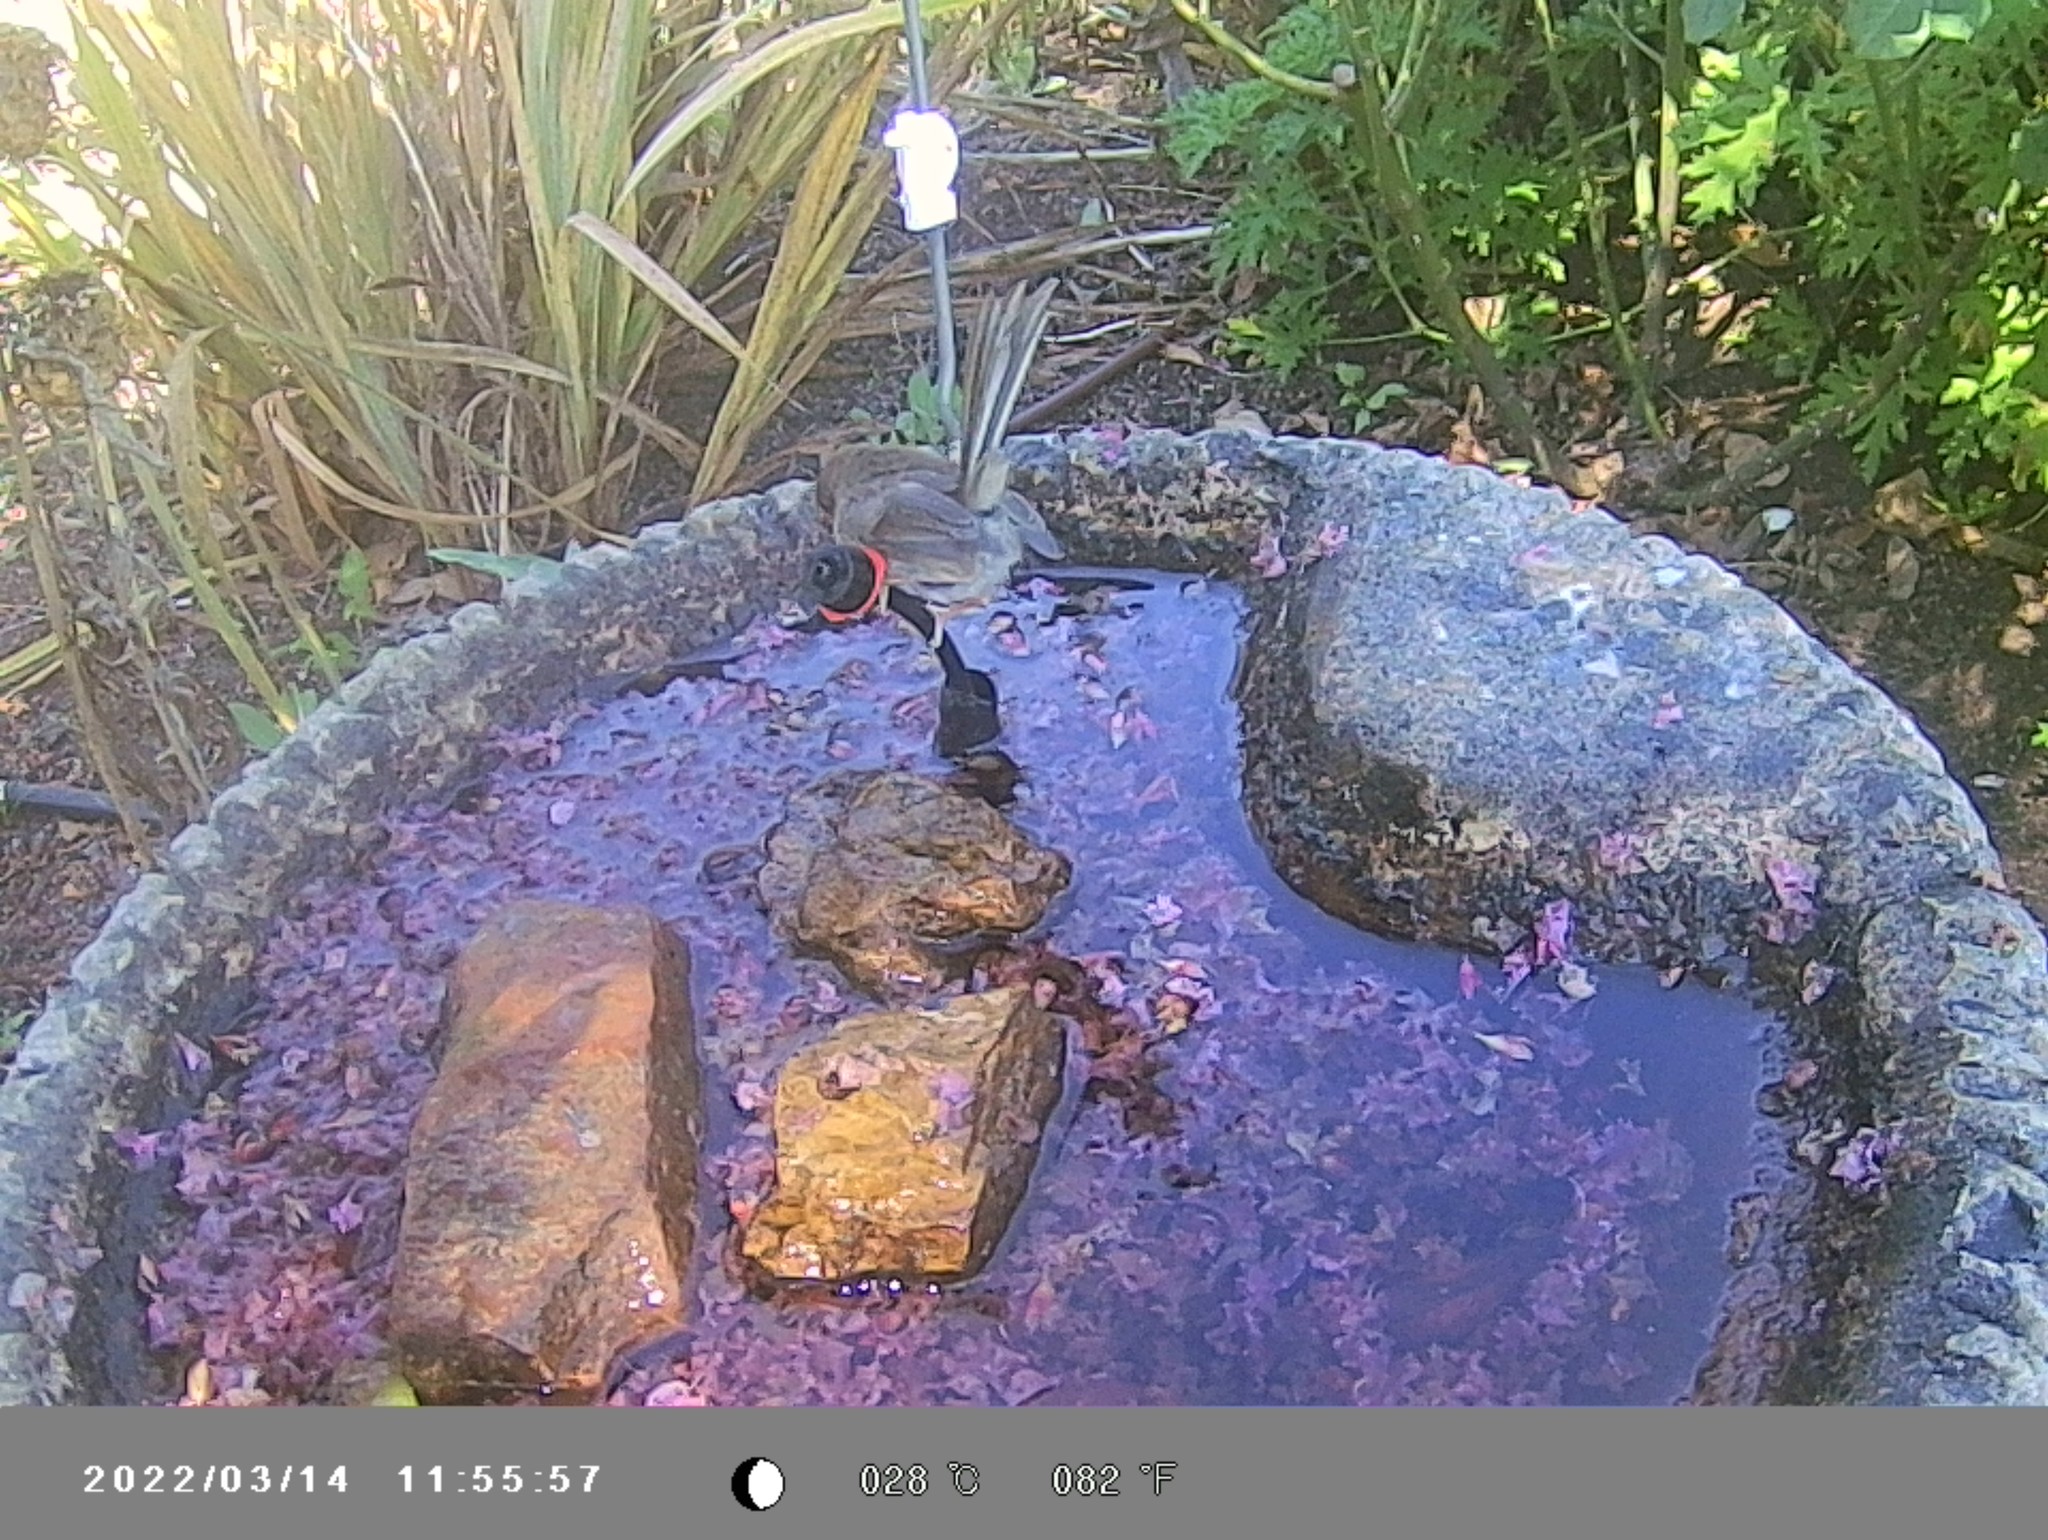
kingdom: Animalia
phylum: Chordata
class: Aves
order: Passeriformes
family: Maluridae
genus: Malurus
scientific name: Malurus cyaneus
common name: Superb fairywren
